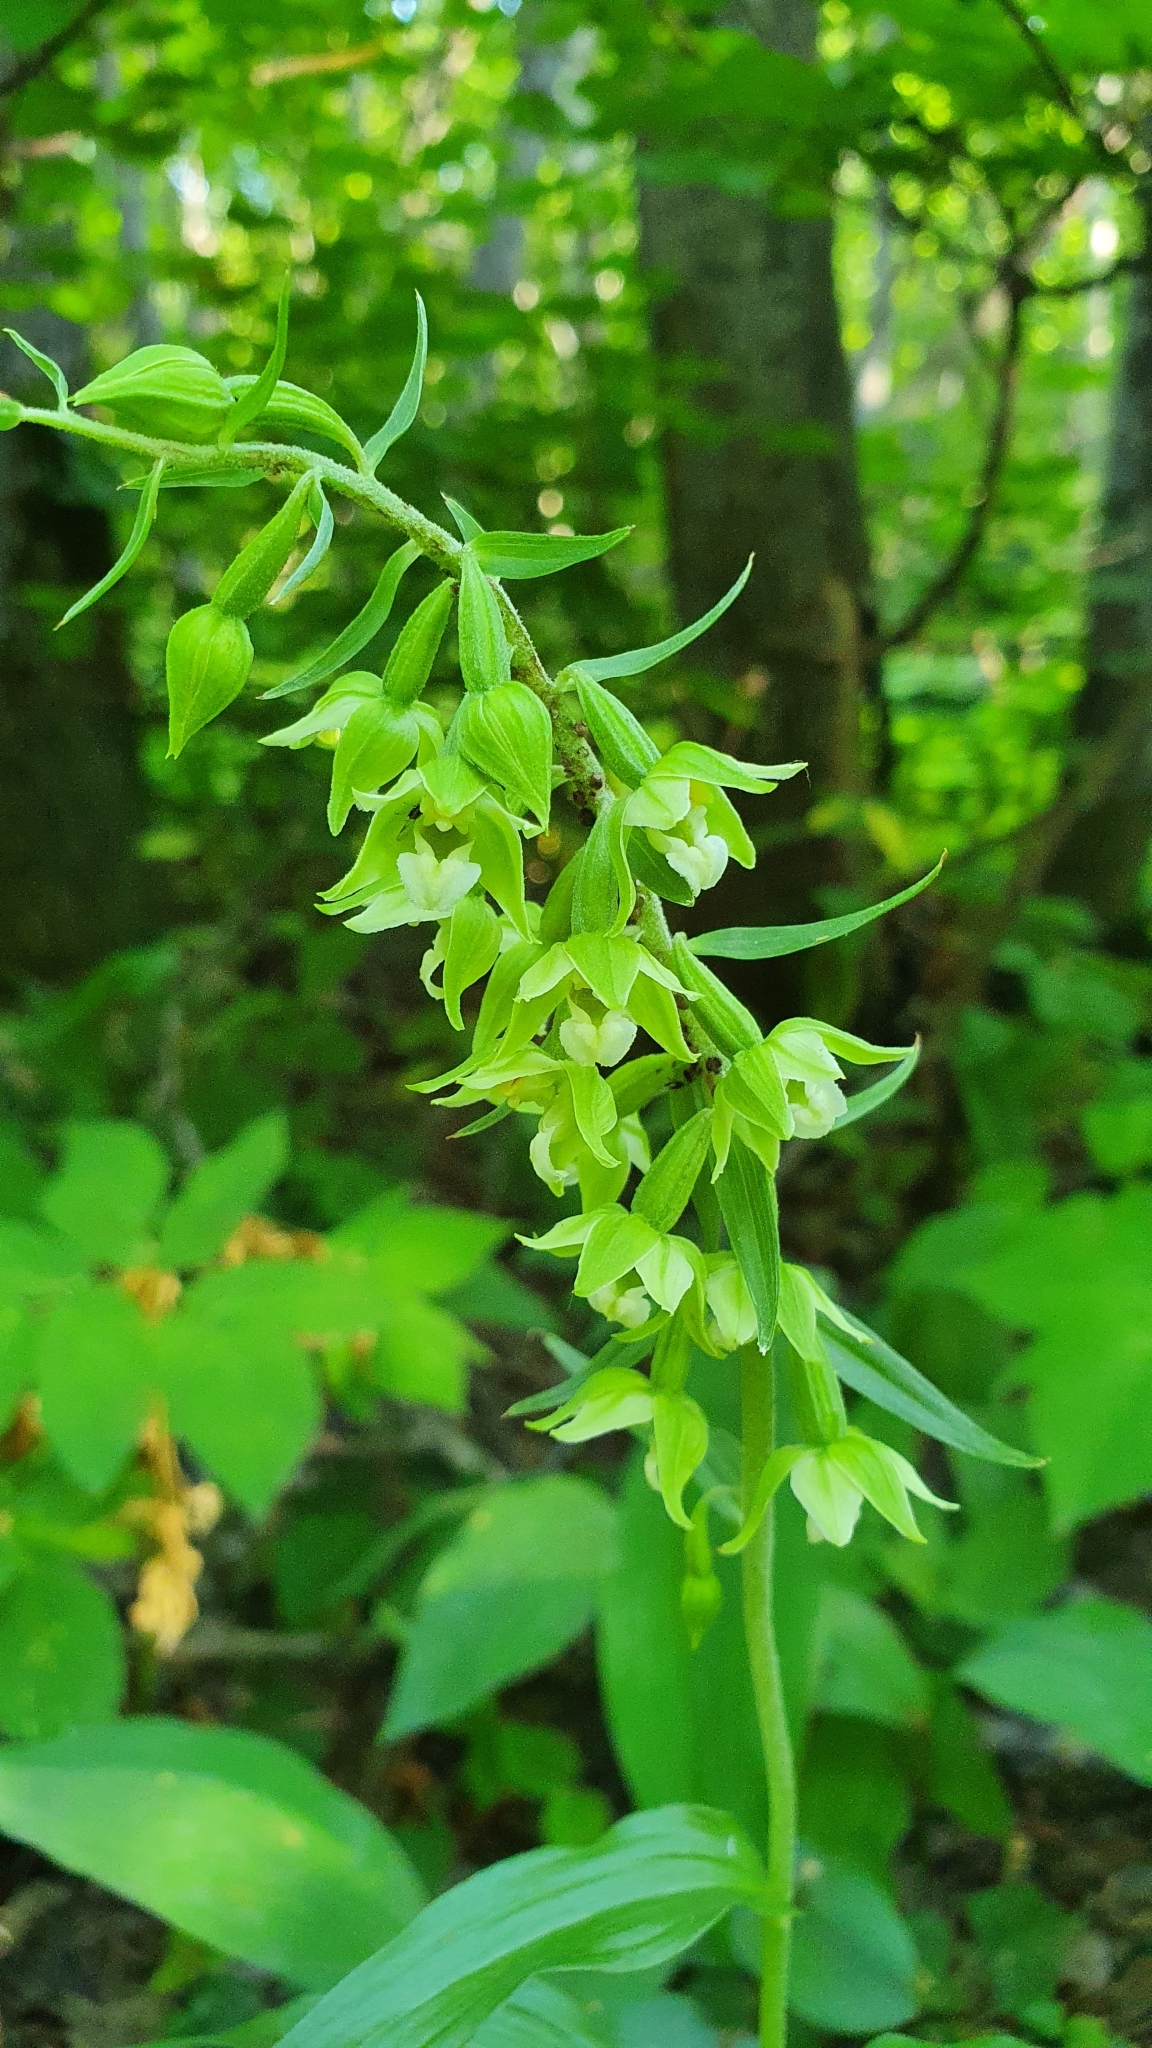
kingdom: Plantae
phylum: Tracheophyta
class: Liliopsida
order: Asparagales
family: Orchidaceae
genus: Epipactis
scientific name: Epipactis helleborine
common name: Broad-leaved helleborine
